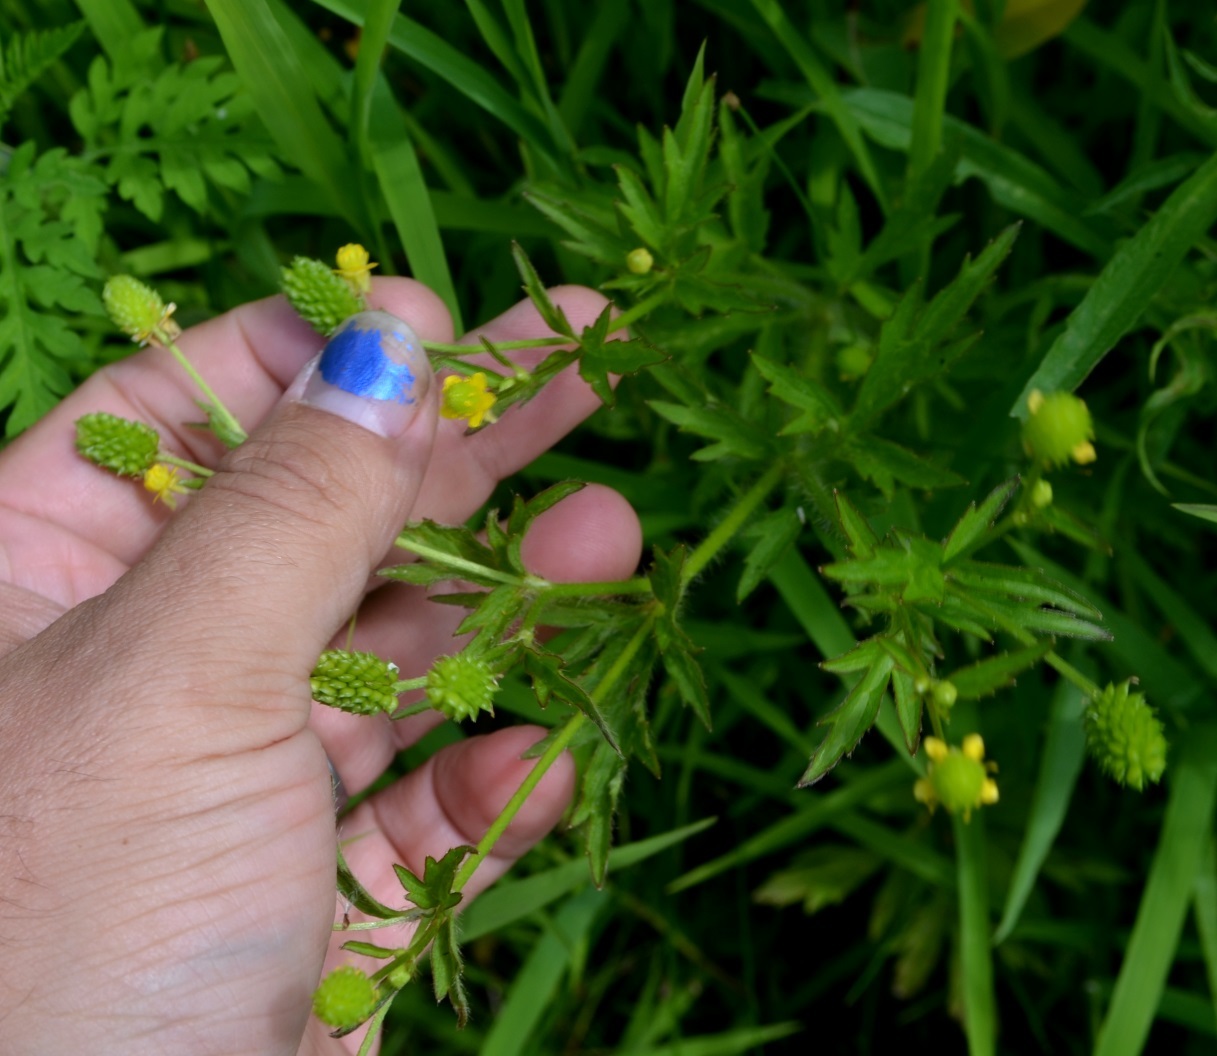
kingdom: Plantae
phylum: Tracheophyta
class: Magnoliopsida
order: Ranunculales
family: Ranunculaceae
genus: Ranunculus
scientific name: Ranunculus pensylvanicus
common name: Bristly buttercup
